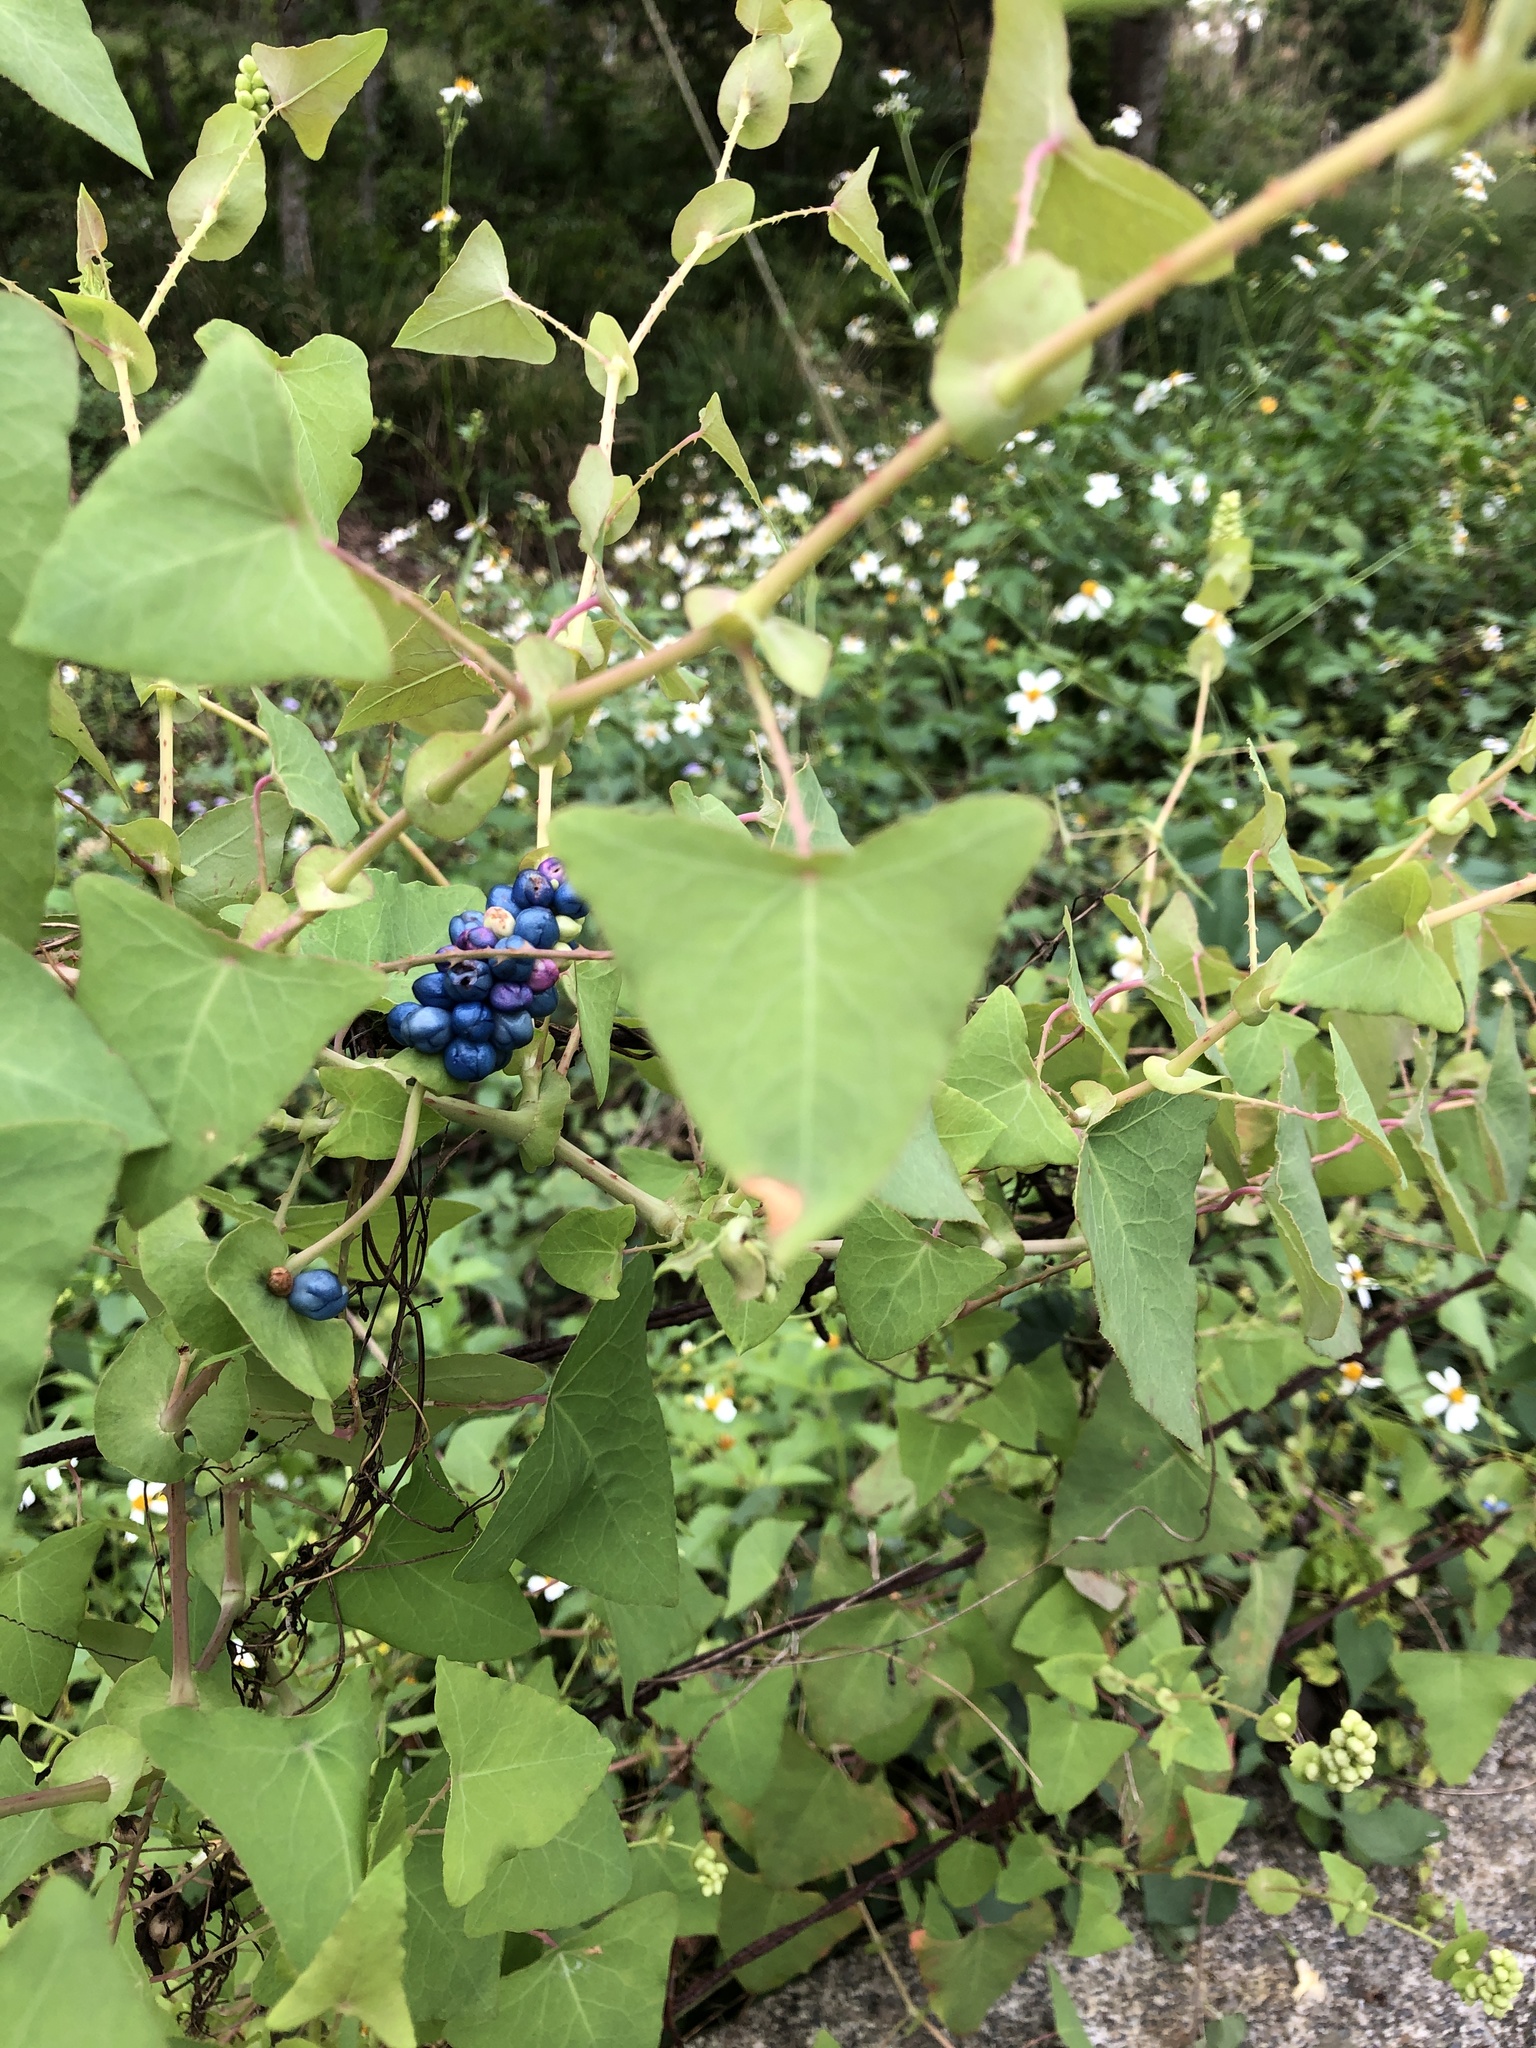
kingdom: Plantae
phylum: Tracheophyta
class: Magnoliopsida
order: Caryophyllales
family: Polygonaceae
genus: Persicaria
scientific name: Persicaria perfoliata
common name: Asiatic tearthumb
